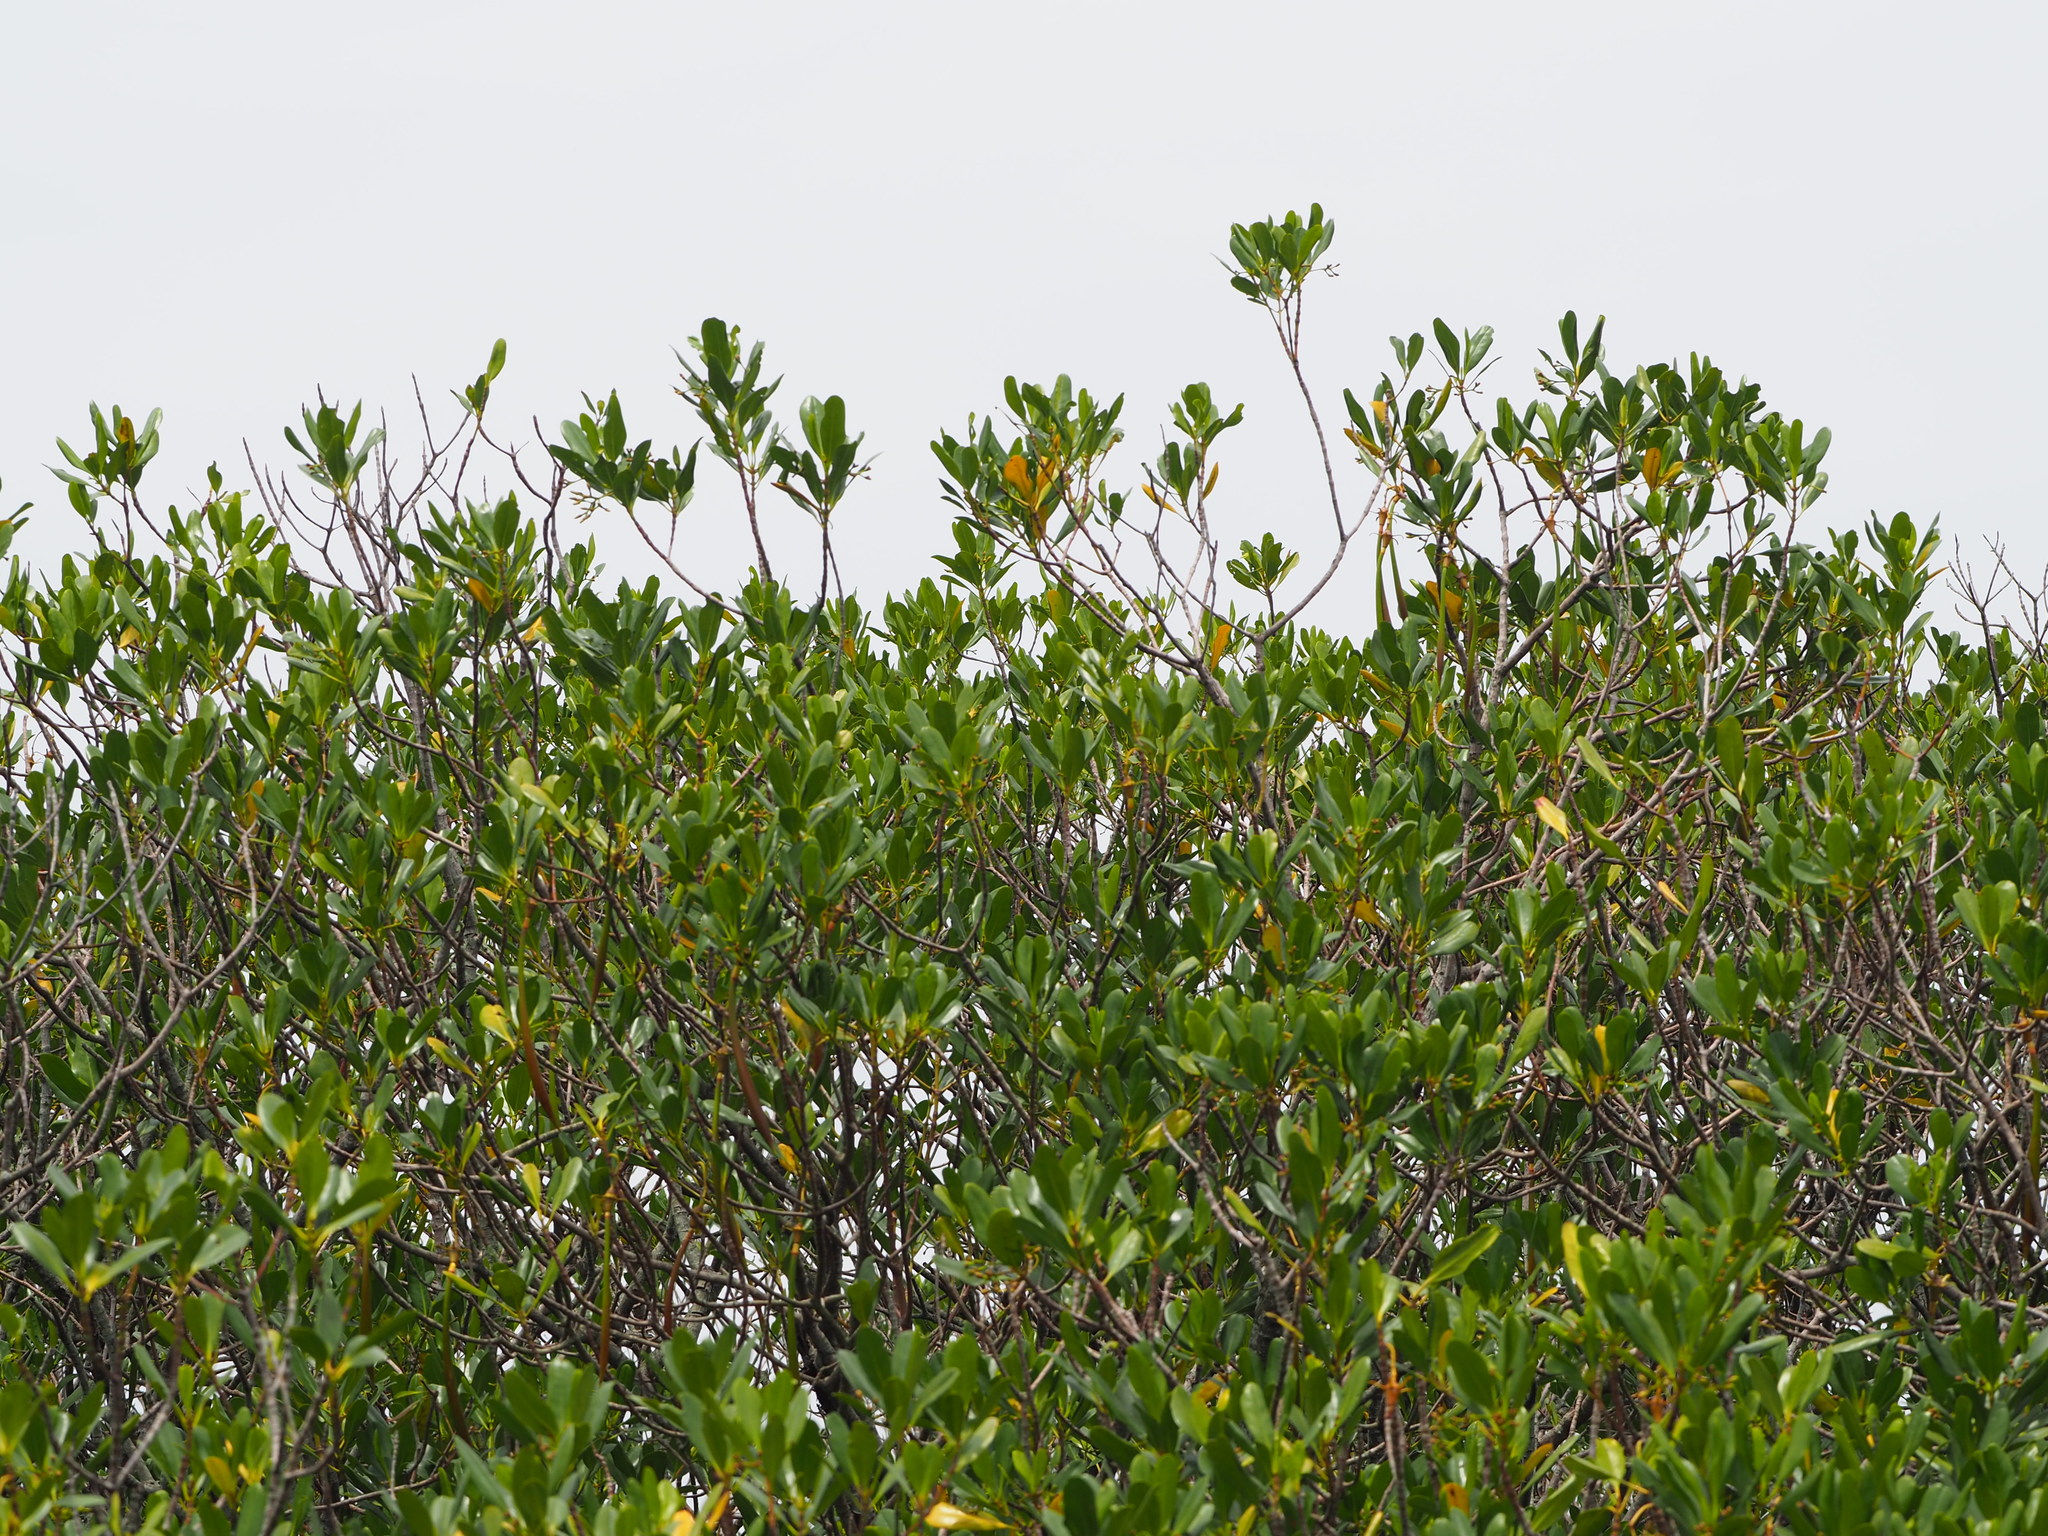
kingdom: Plantae
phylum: Tracheophyta
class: Magnoliopsida
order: Malpighiales
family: Rhizophoraceae
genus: Kandelia
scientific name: Kandelia obovata
